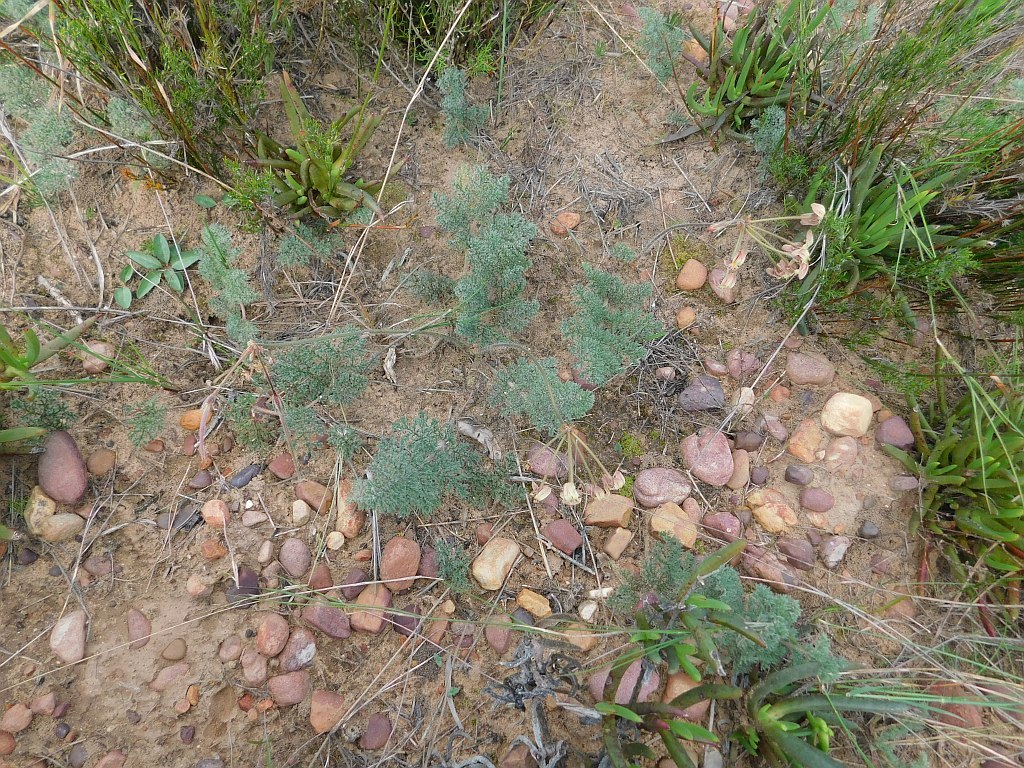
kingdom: Plantae
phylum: Tracheophyta
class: Magnoliopsida
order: Geraniales
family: Geraniaceae
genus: Pelargonium
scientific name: Pelargonium triste
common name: Night-scent pelargonium
